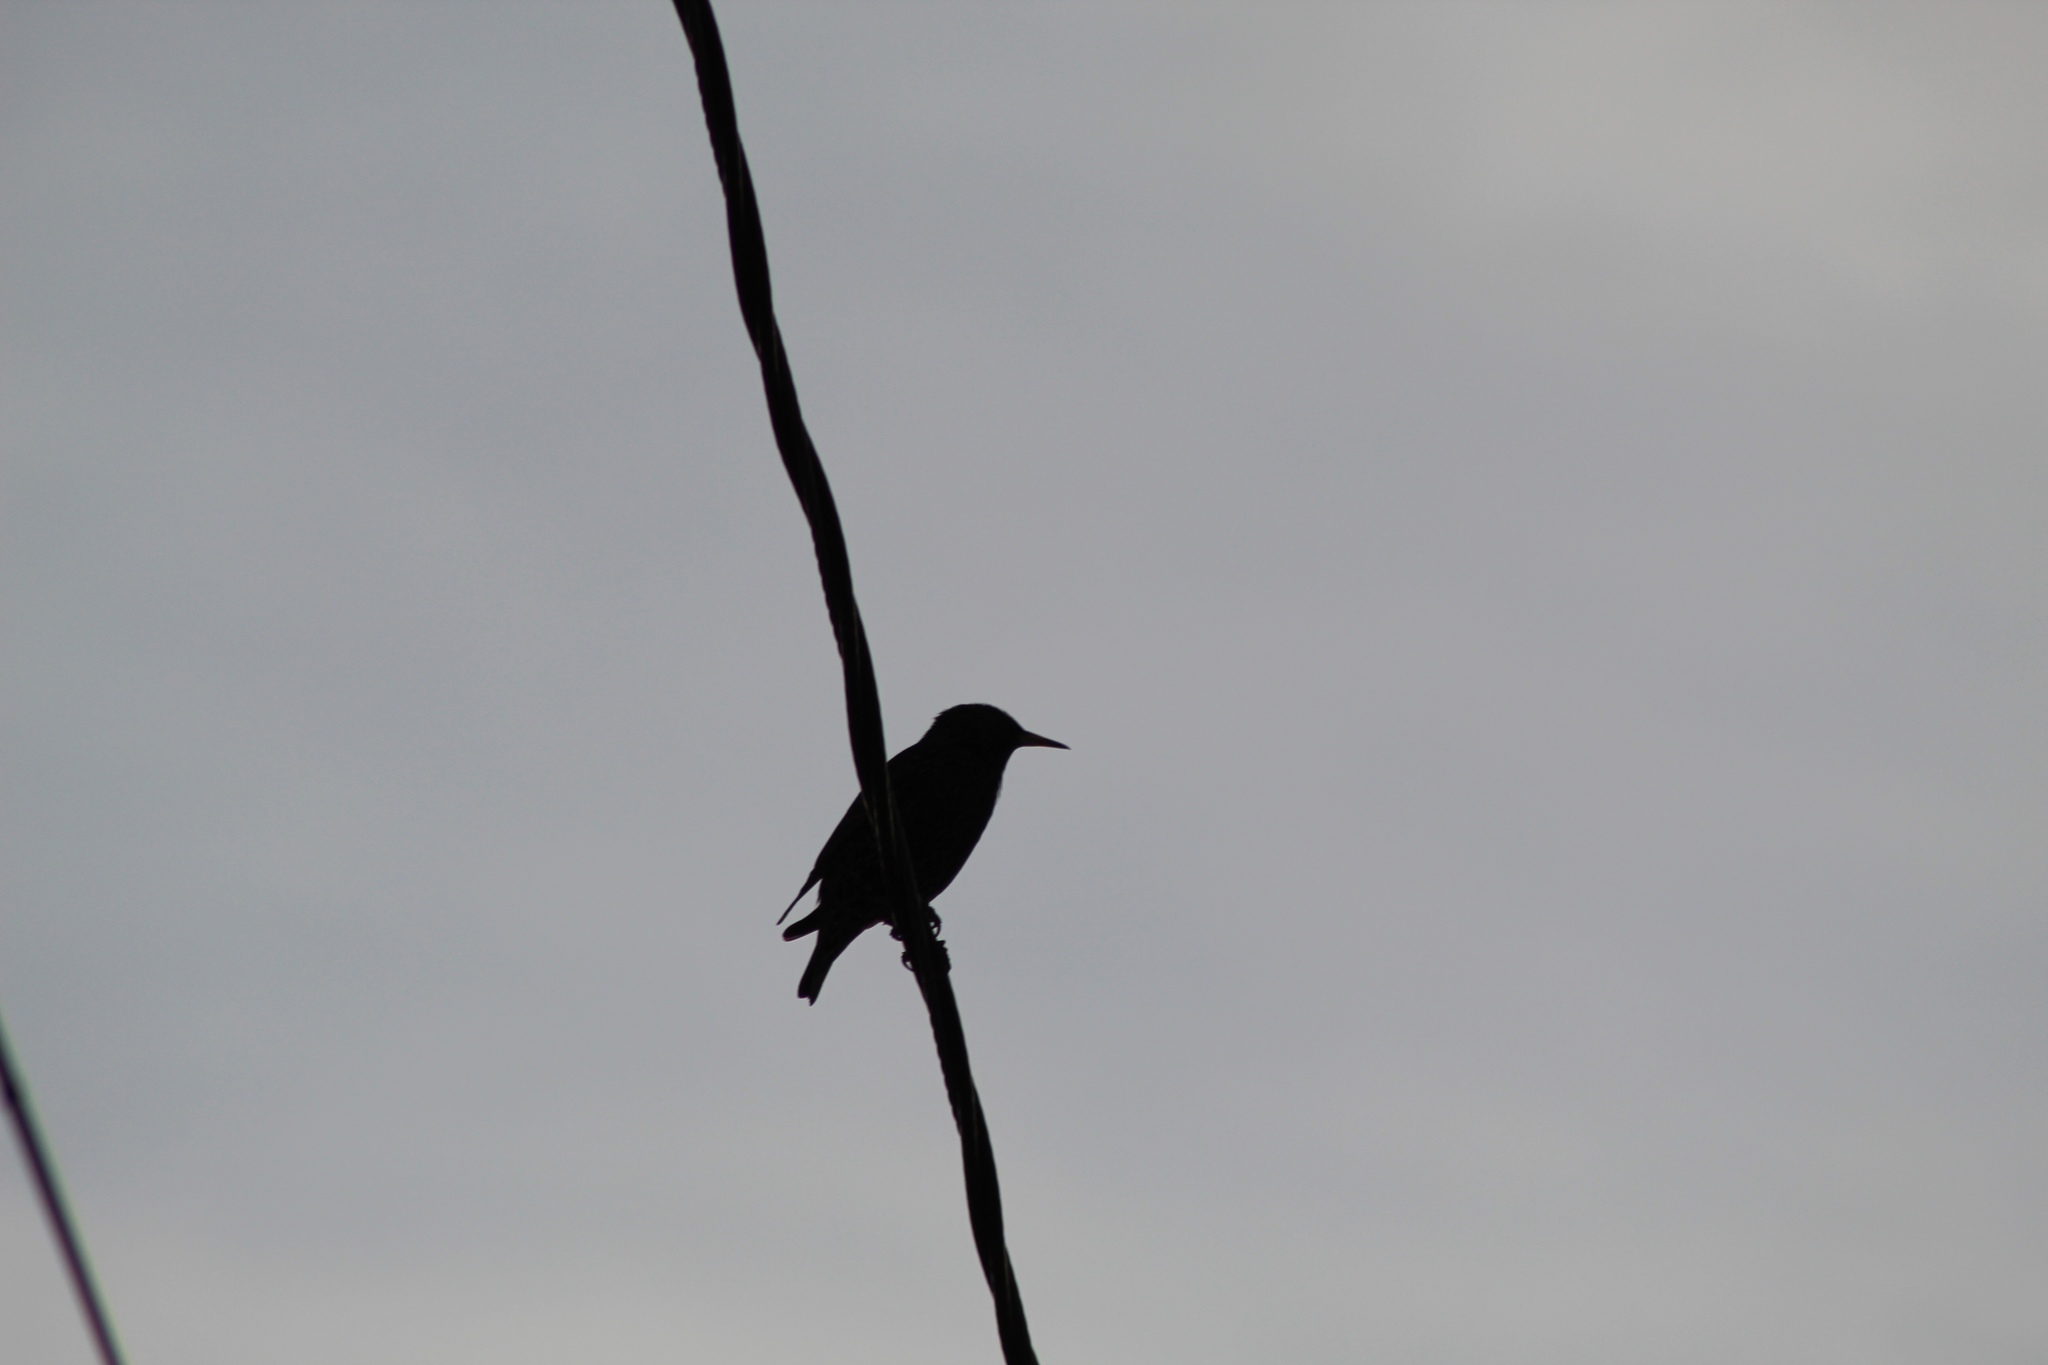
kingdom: Animalia
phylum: Chordata
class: Aves
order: Passeriformes
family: Sturnidae
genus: Sturnus
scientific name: Sturnus vulgaris
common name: Common starling
